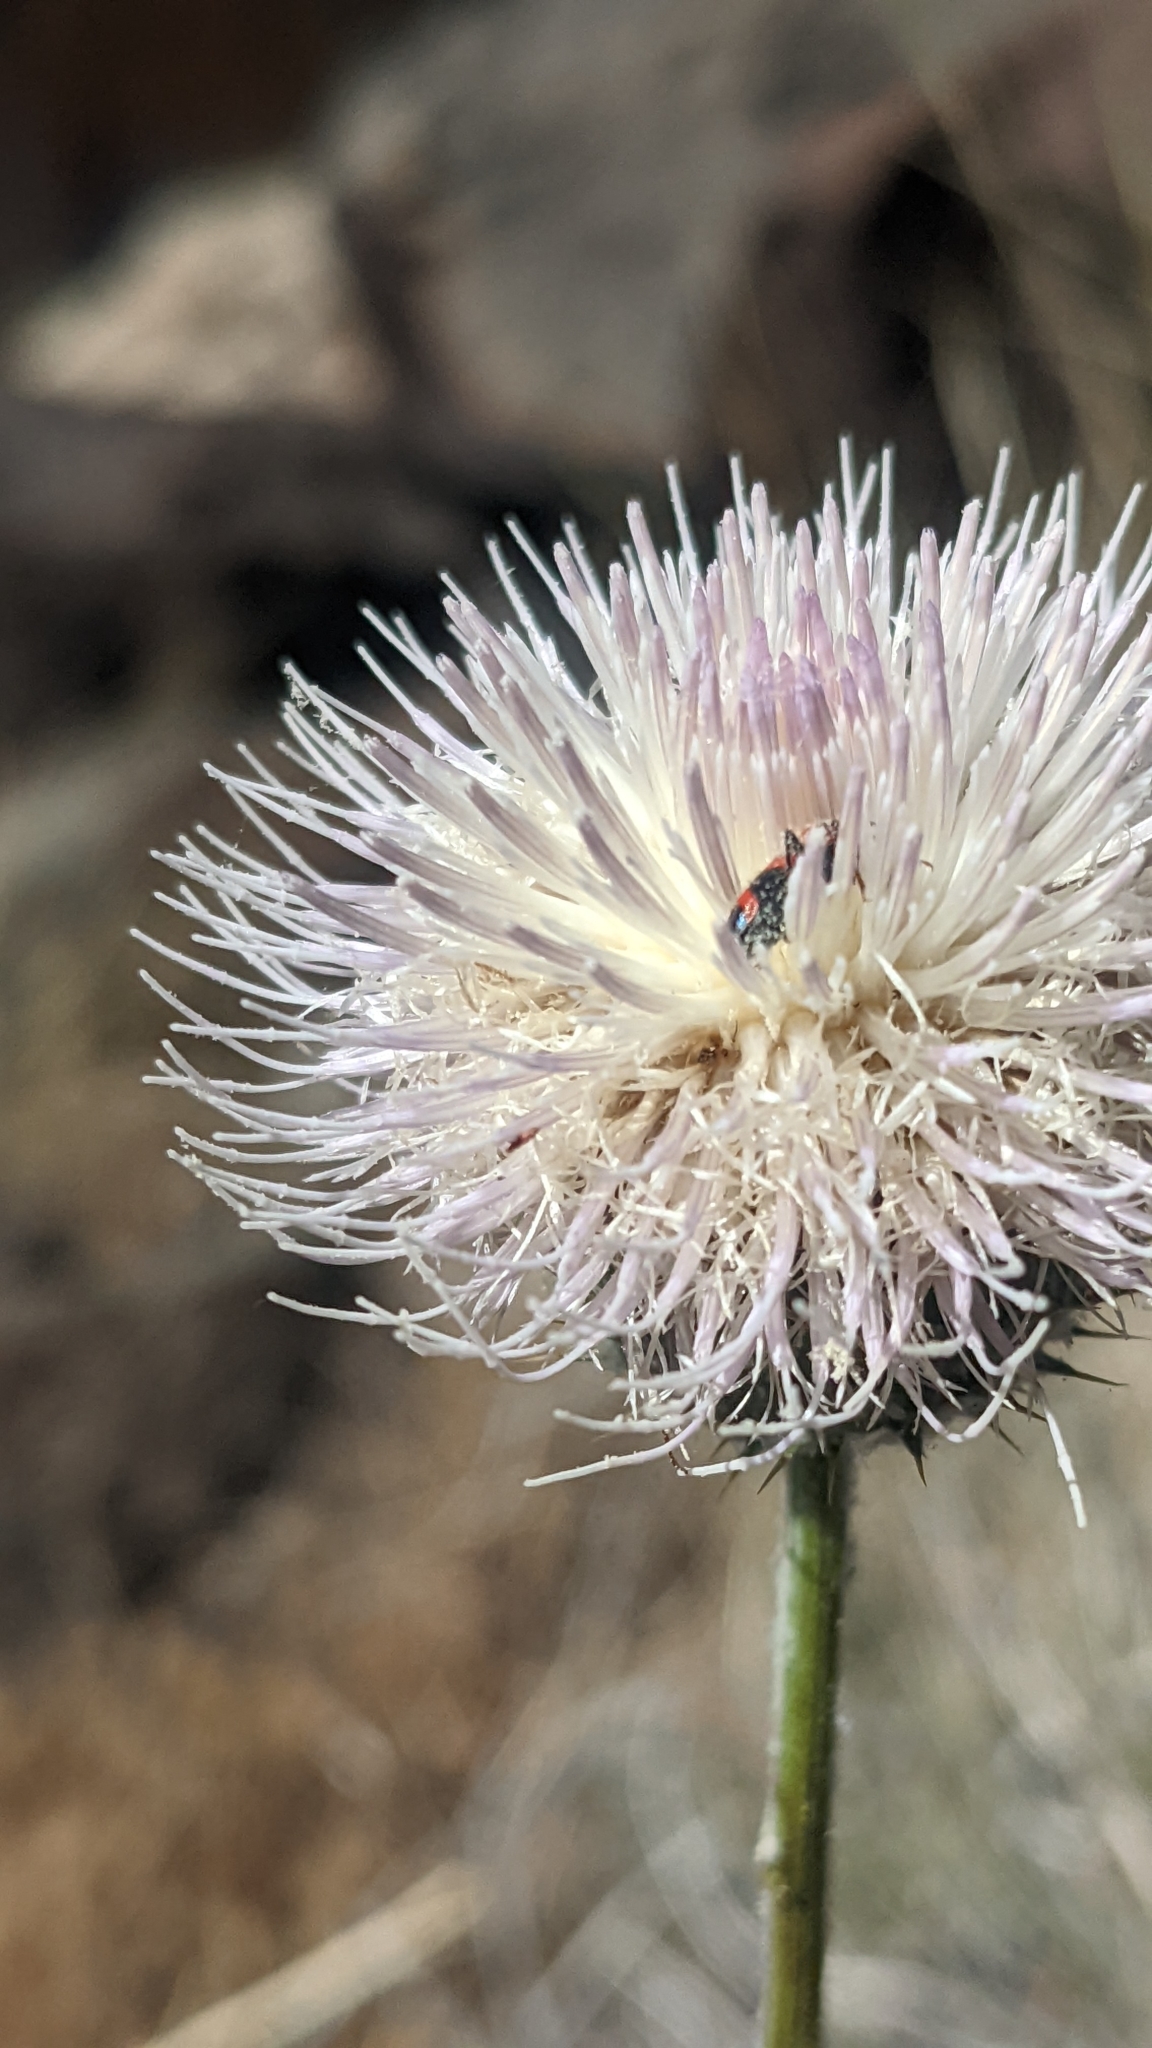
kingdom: Plantae
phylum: Tracheophyta
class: Magnoliopsida
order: Asterales
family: Asteraceae
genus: Cirsium
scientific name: Cirsium neomexicanum
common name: New mexico thistle
